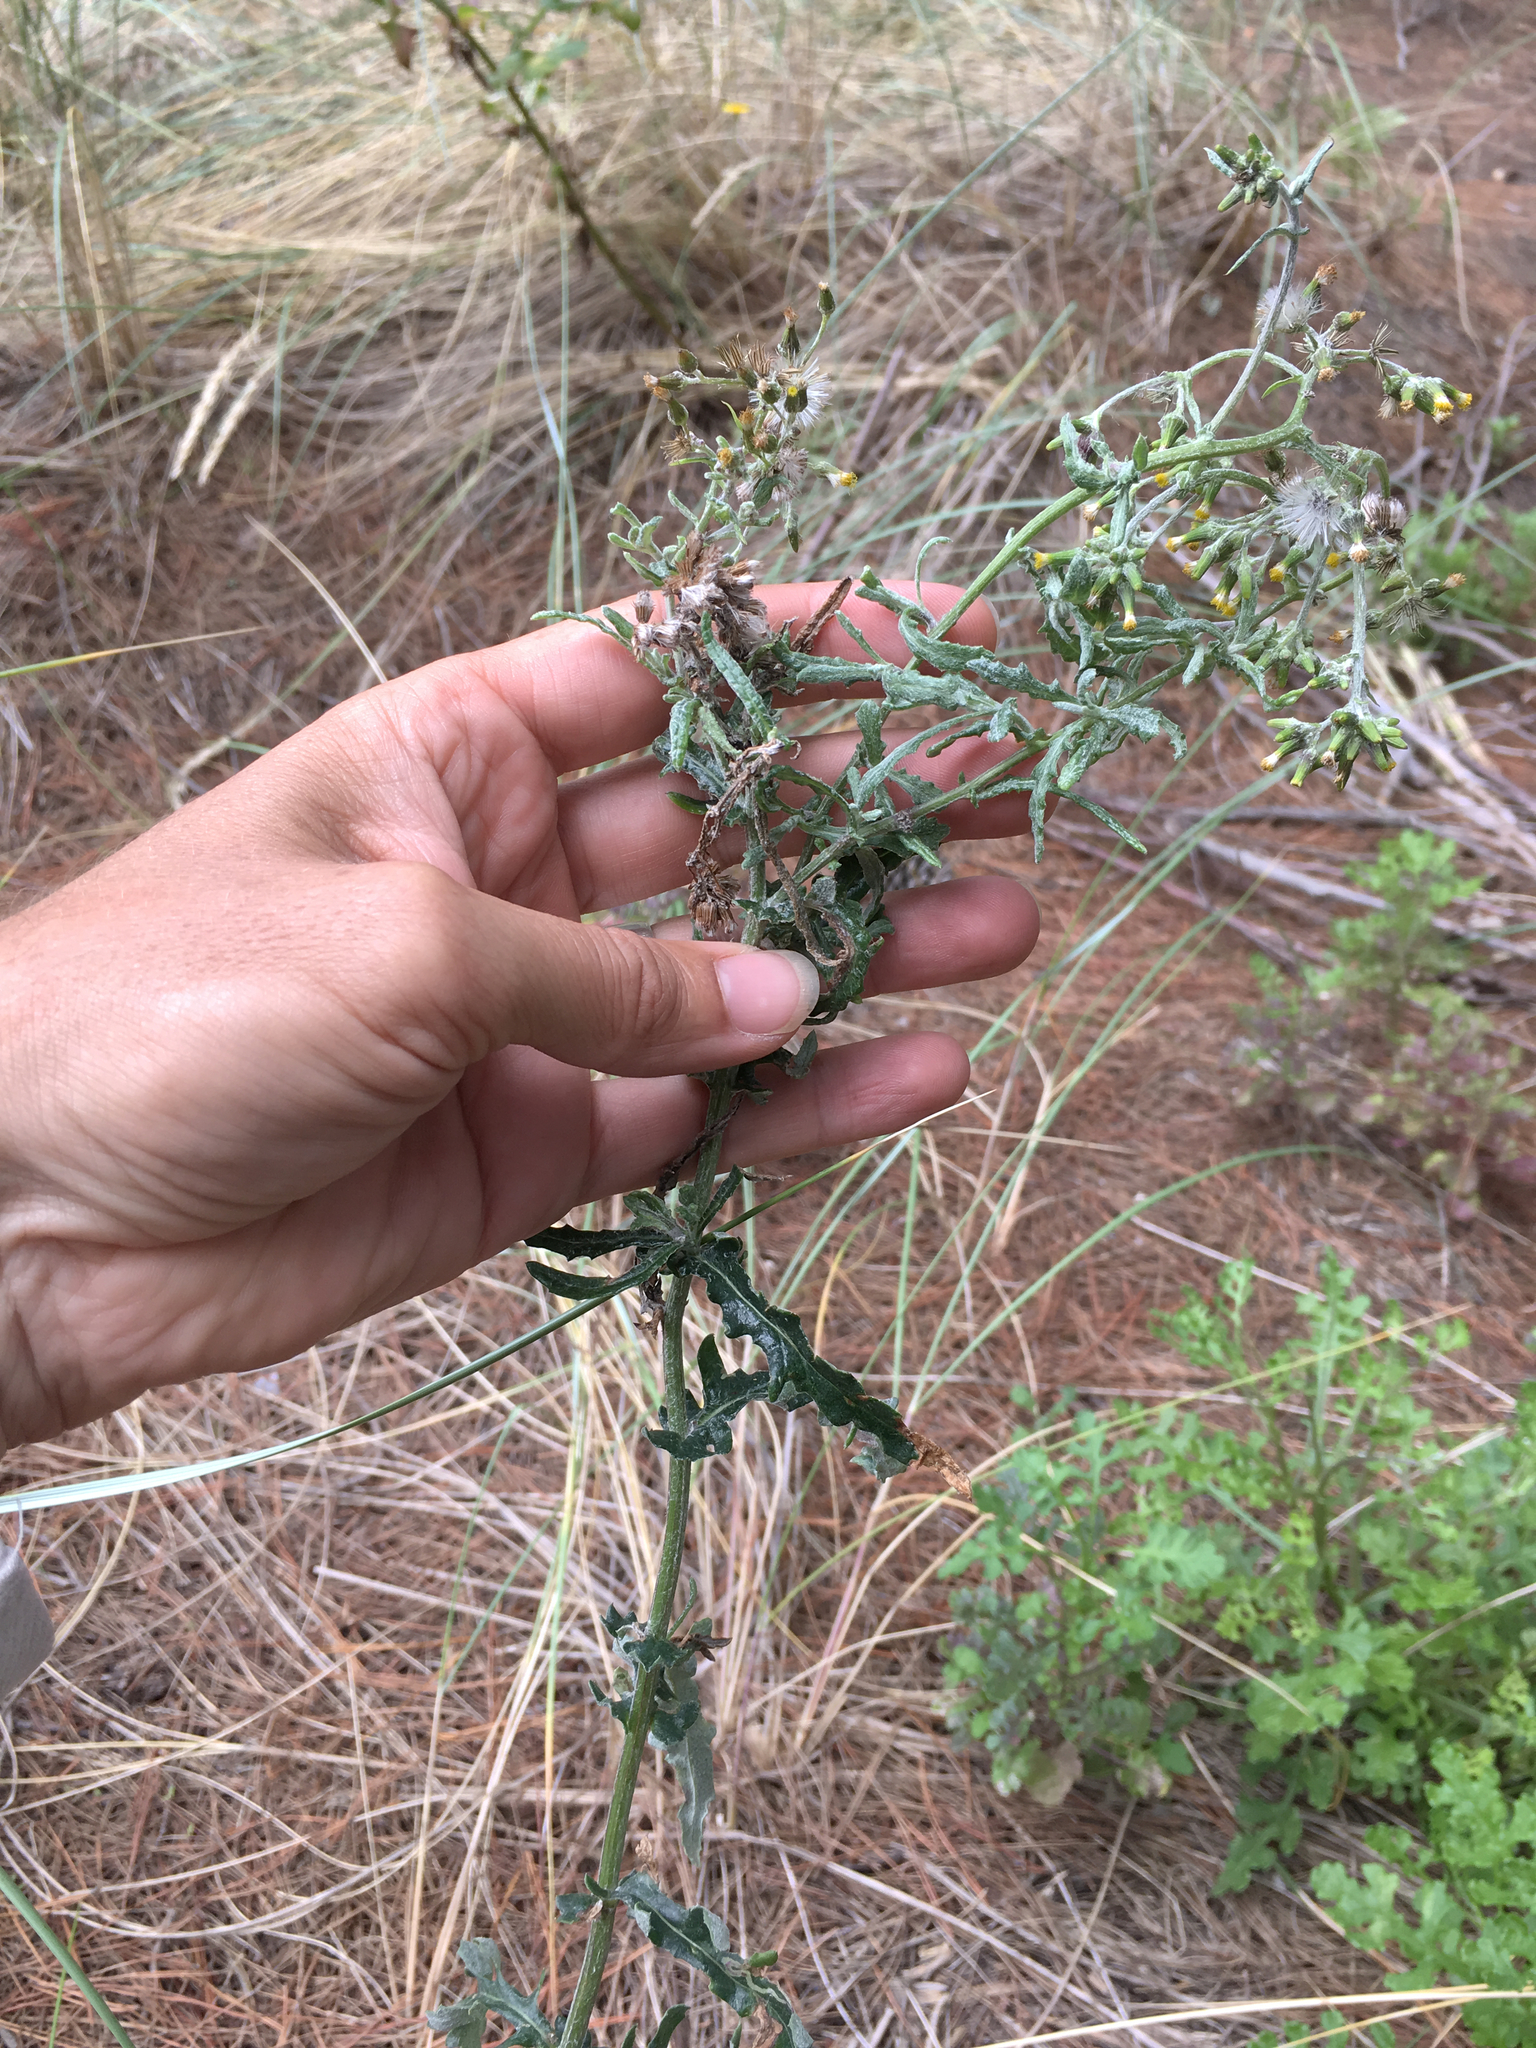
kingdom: Plantae
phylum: Tracheophyta
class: Magnoliopsida
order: Asterales
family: Asteraceae
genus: Senecio
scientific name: Senecio glomeratus
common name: Cutleaf burnweed
